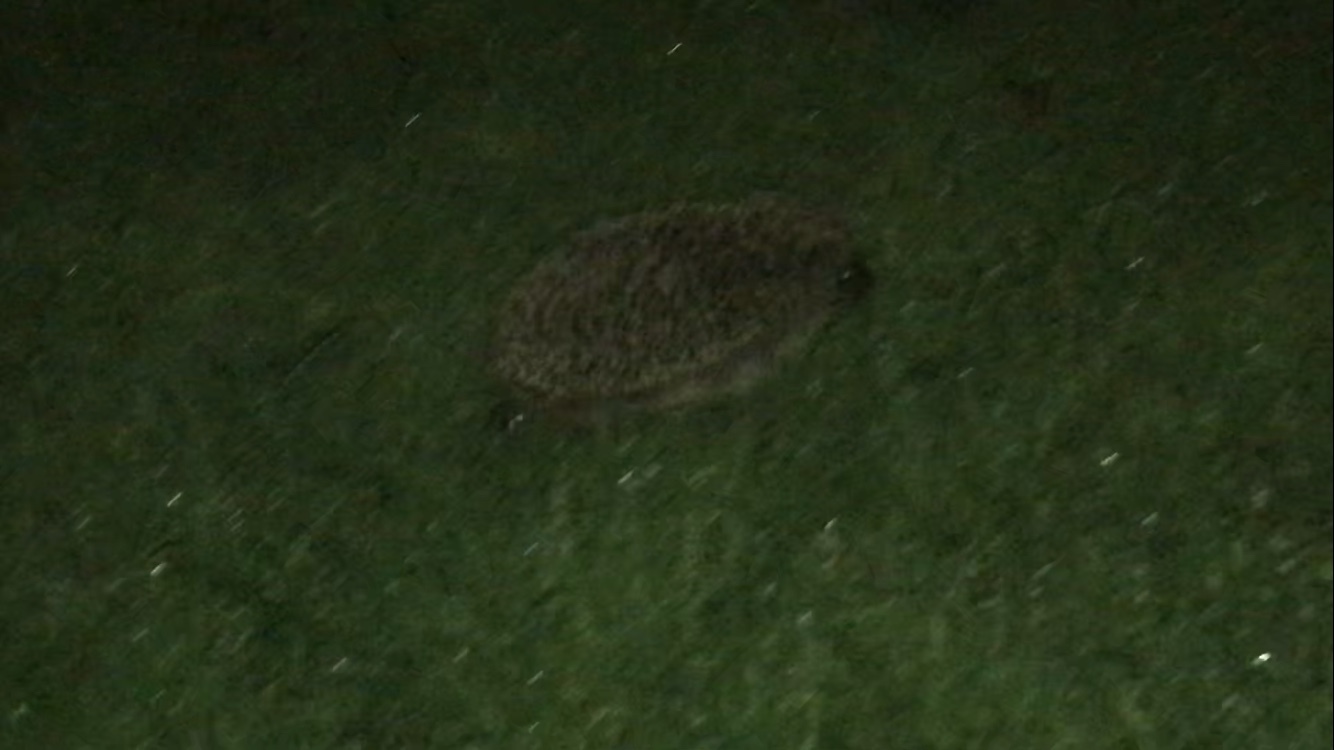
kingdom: Animalia
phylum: Chordata
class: Mammalia
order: Erinaceomorpha
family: Erinaceidae
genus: Erinaceus
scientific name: Erinaceus europaeus
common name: West european hedgehog
